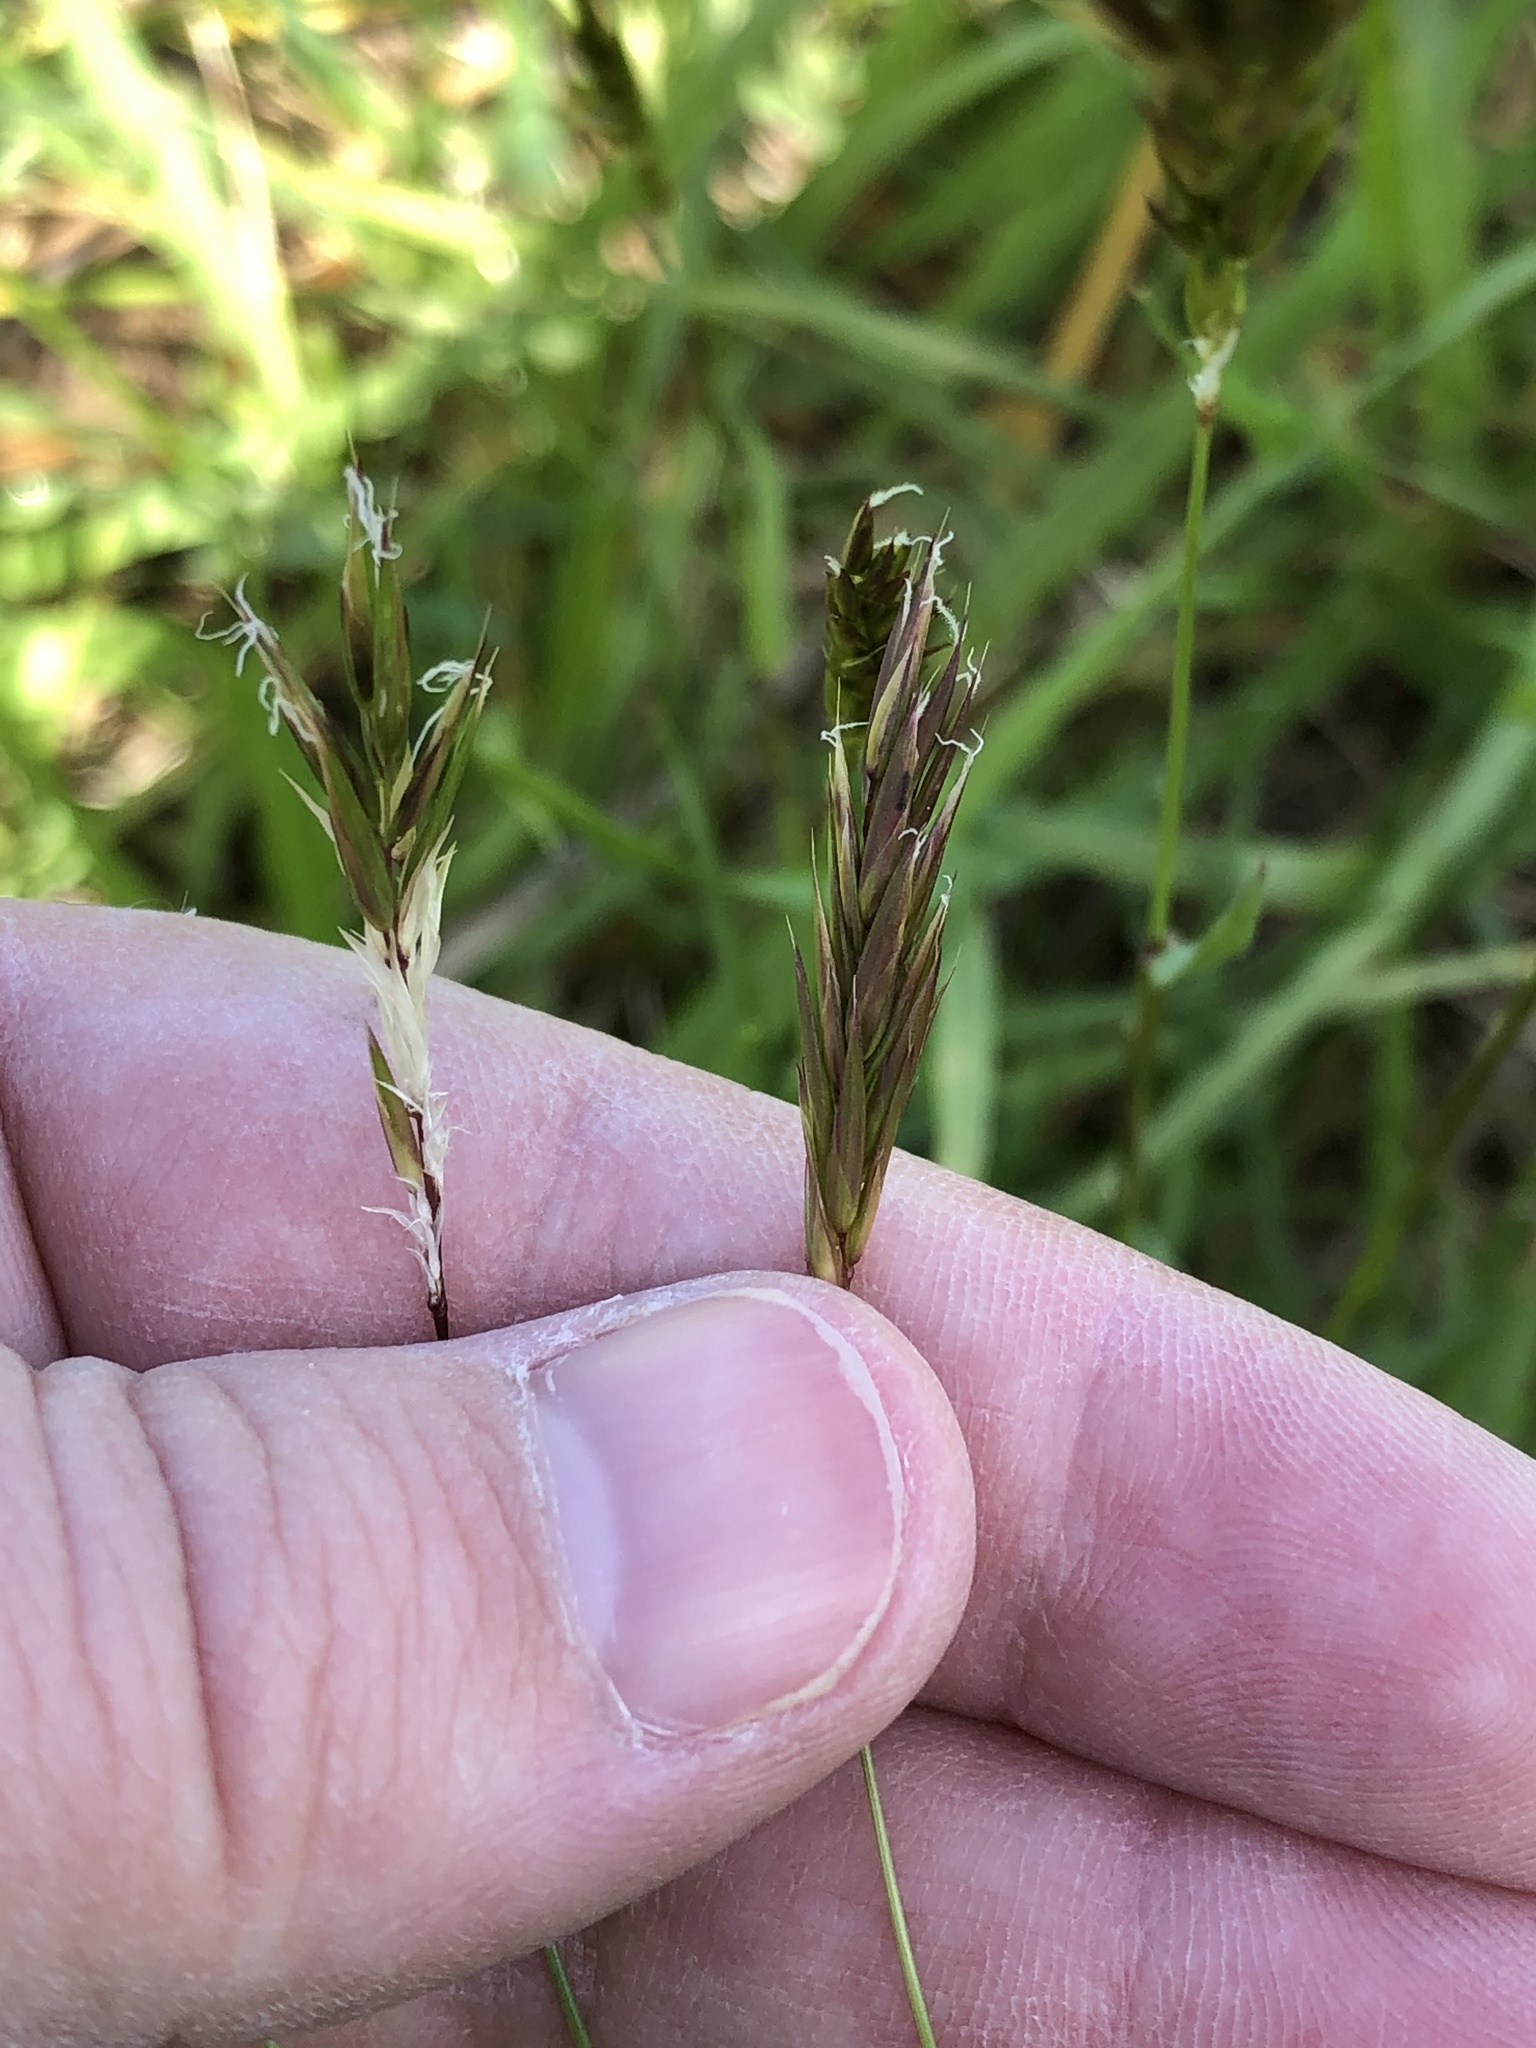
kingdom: Plantae
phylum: Tracheophyta
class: Liliopsida
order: Poales
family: Poaceae
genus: Anthoxanthum
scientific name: Anthoxanthum odoratum
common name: Sweet vernalgrass
